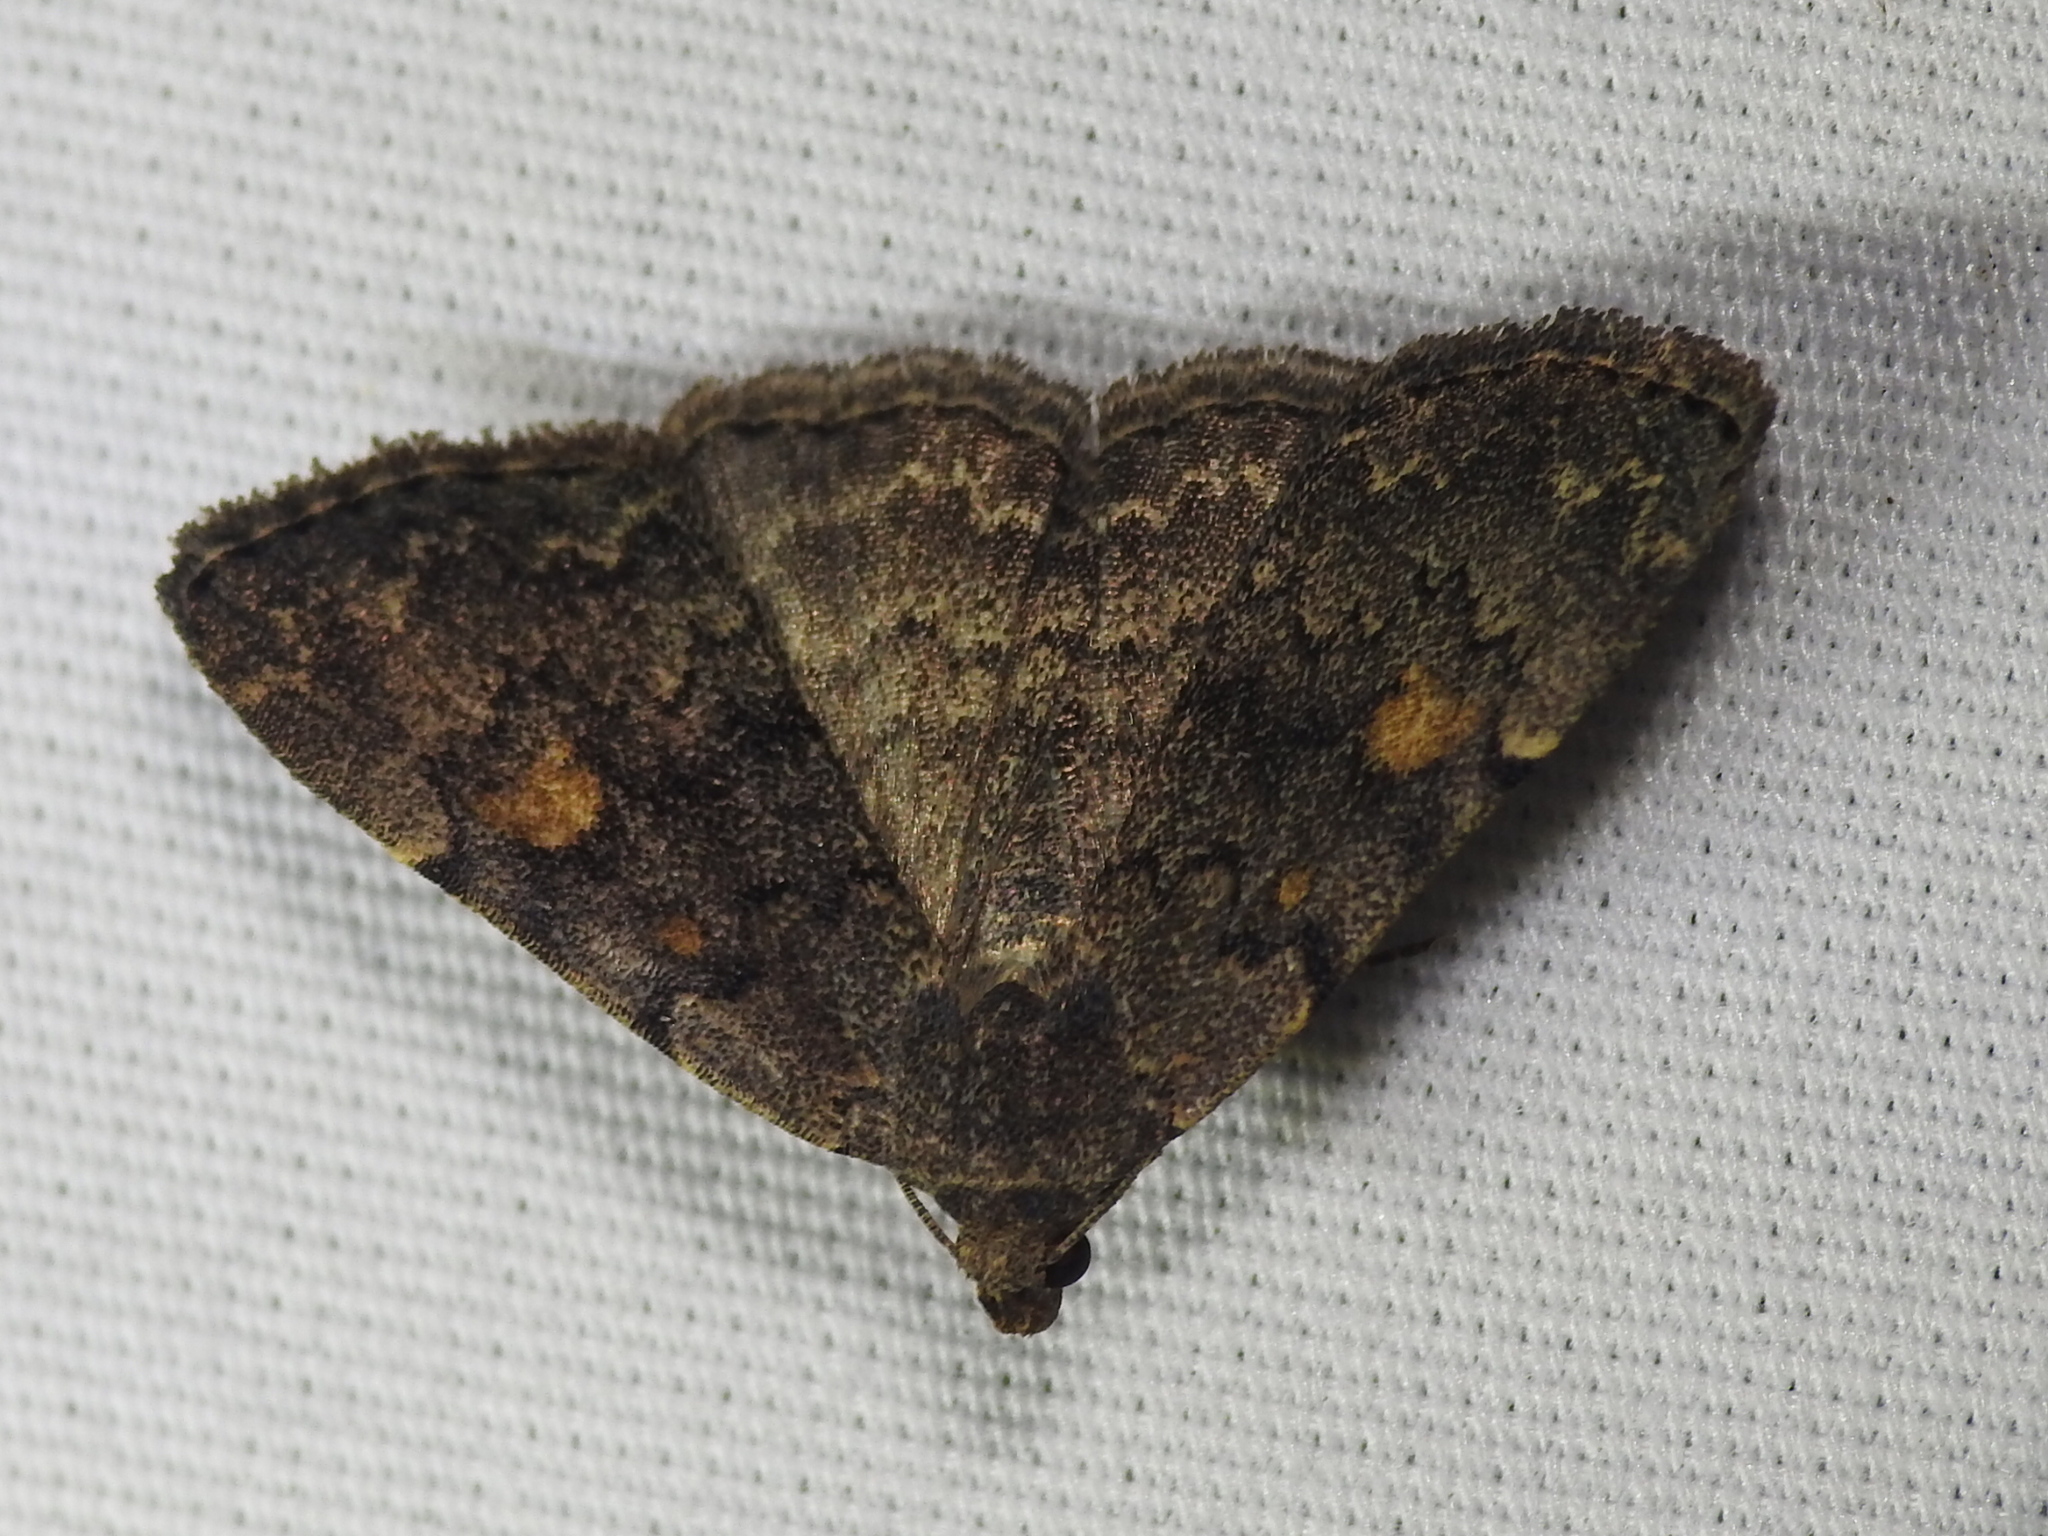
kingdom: Animalia
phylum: Arthropoda
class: Insecta
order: Lepidoptera
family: Erebidae
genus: Idia
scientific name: Idia aemula
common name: Common idia moth
